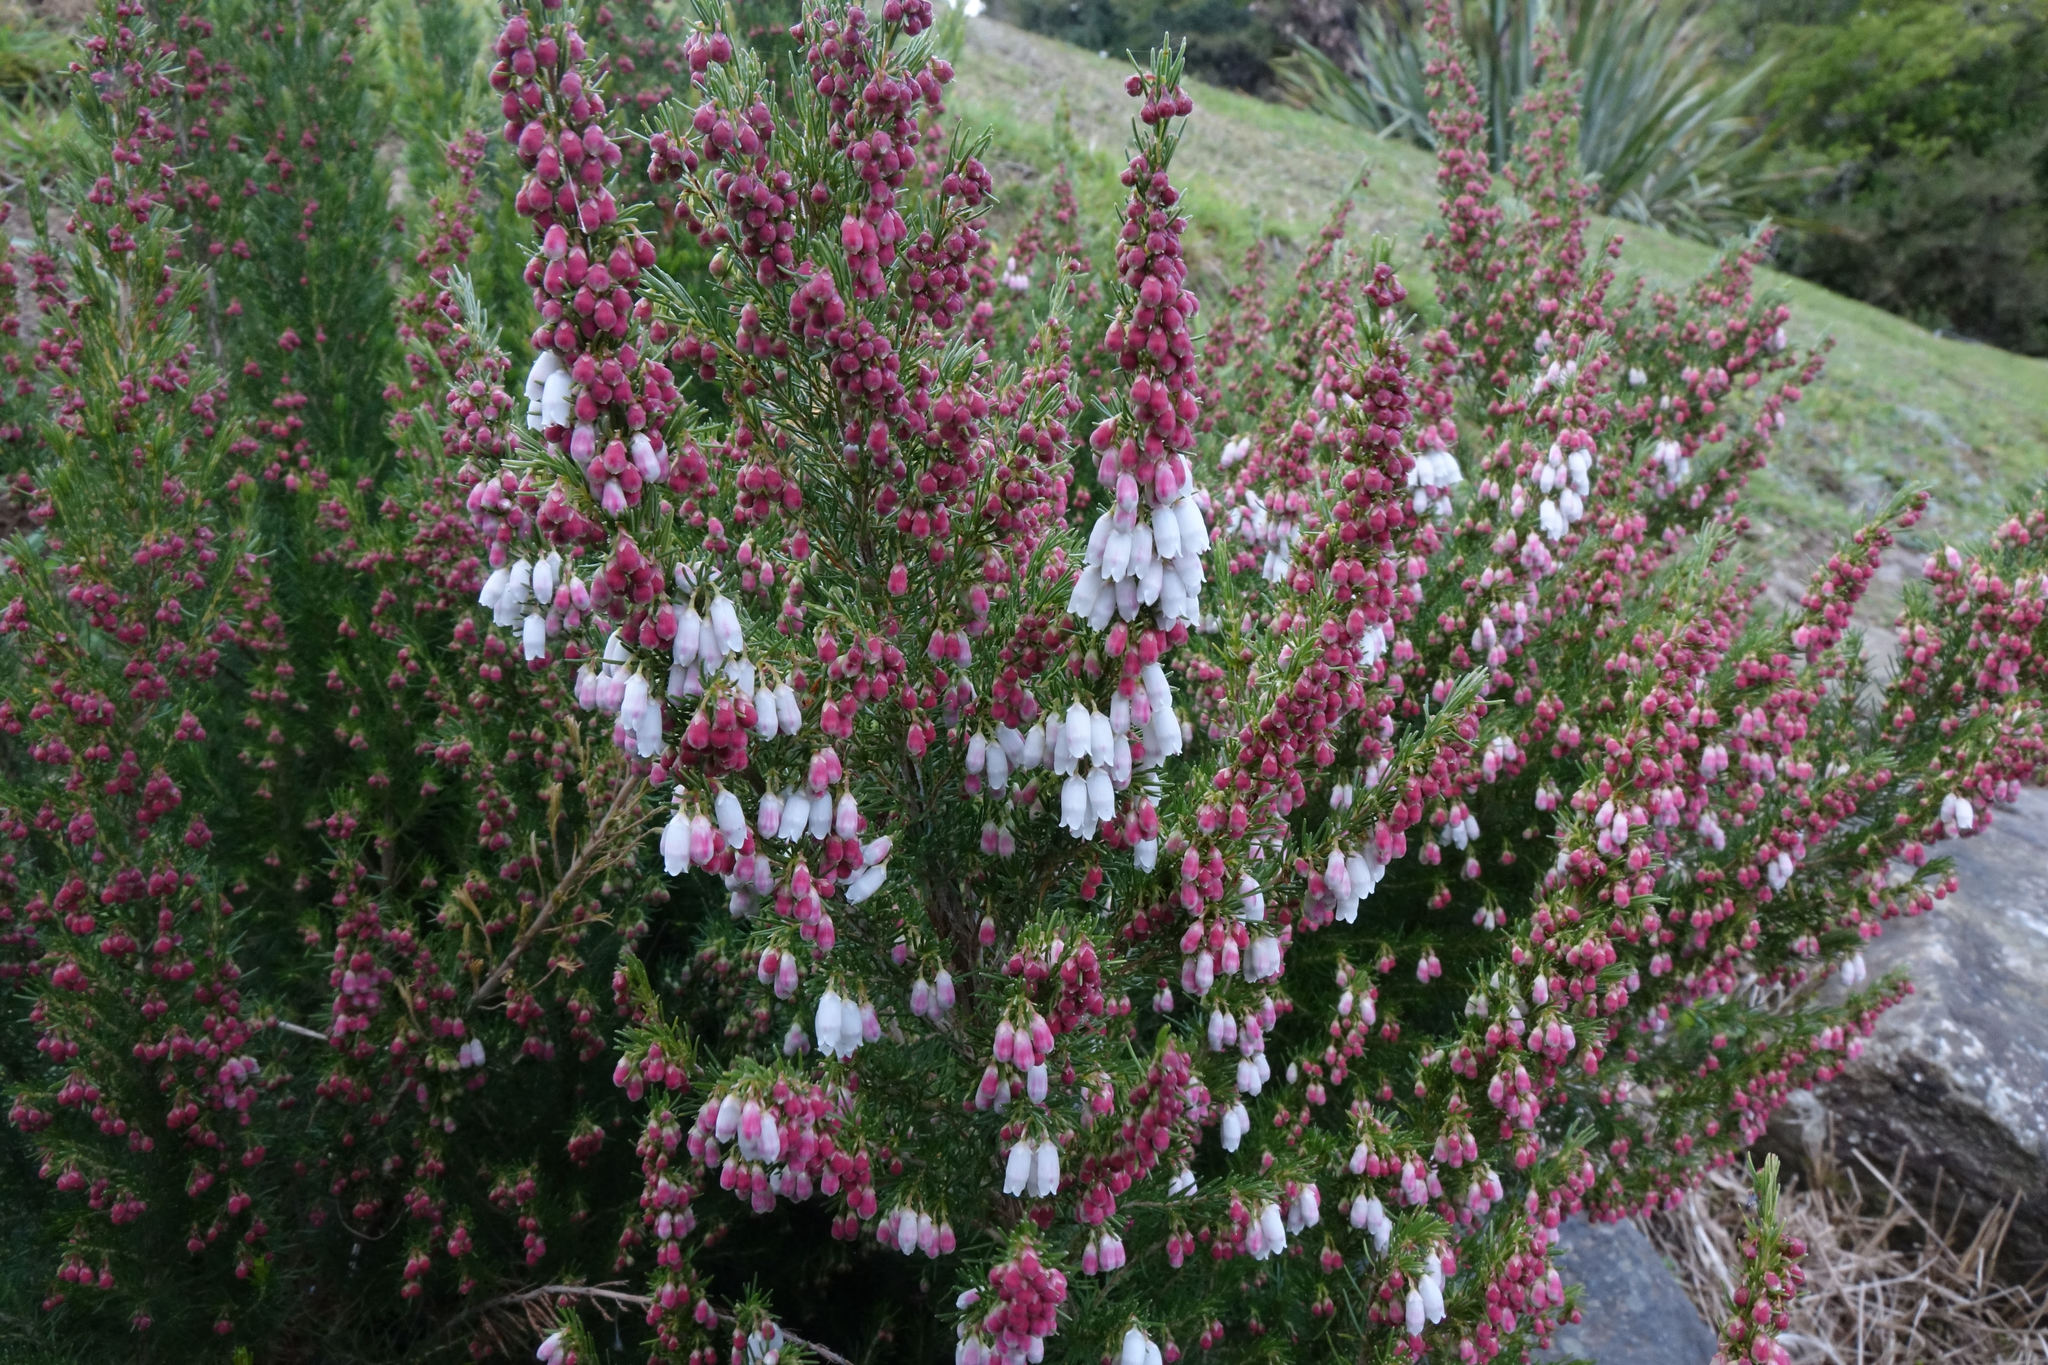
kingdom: Plantae
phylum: Tracheophyta
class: Magnoliopsida
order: Ericales
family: Ericaceae
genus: Erica
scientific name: Erica lusitanica
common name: Spanish heath
